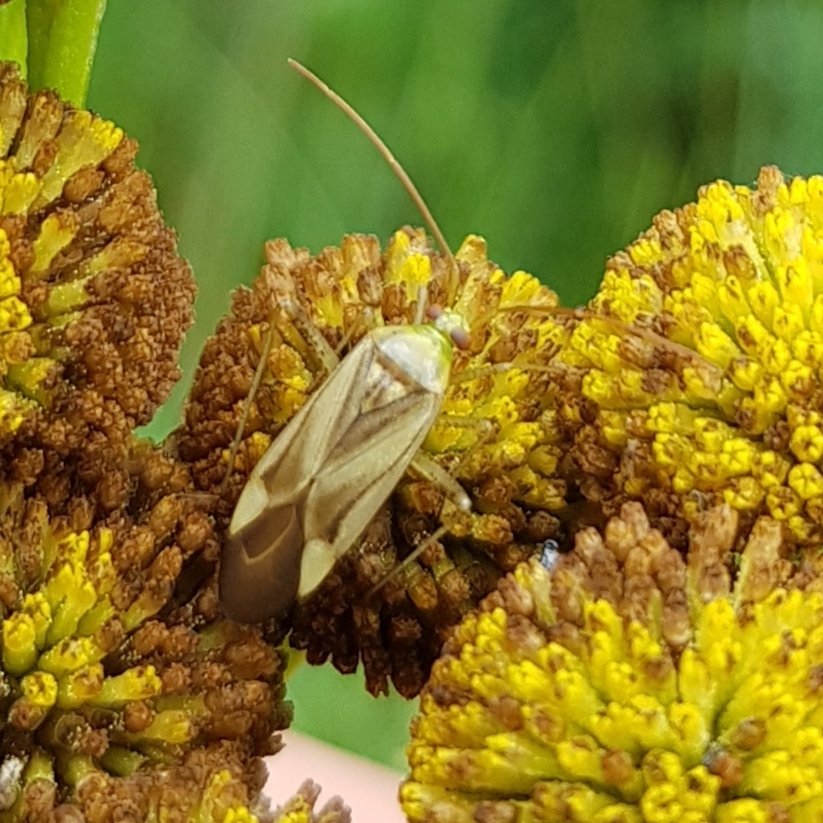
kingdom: Animalia
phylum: Arthropoda
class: Insecta
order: Hemiptera
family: Miridae
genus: Adelphocoris
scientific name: Adelphocoris lineolatus
